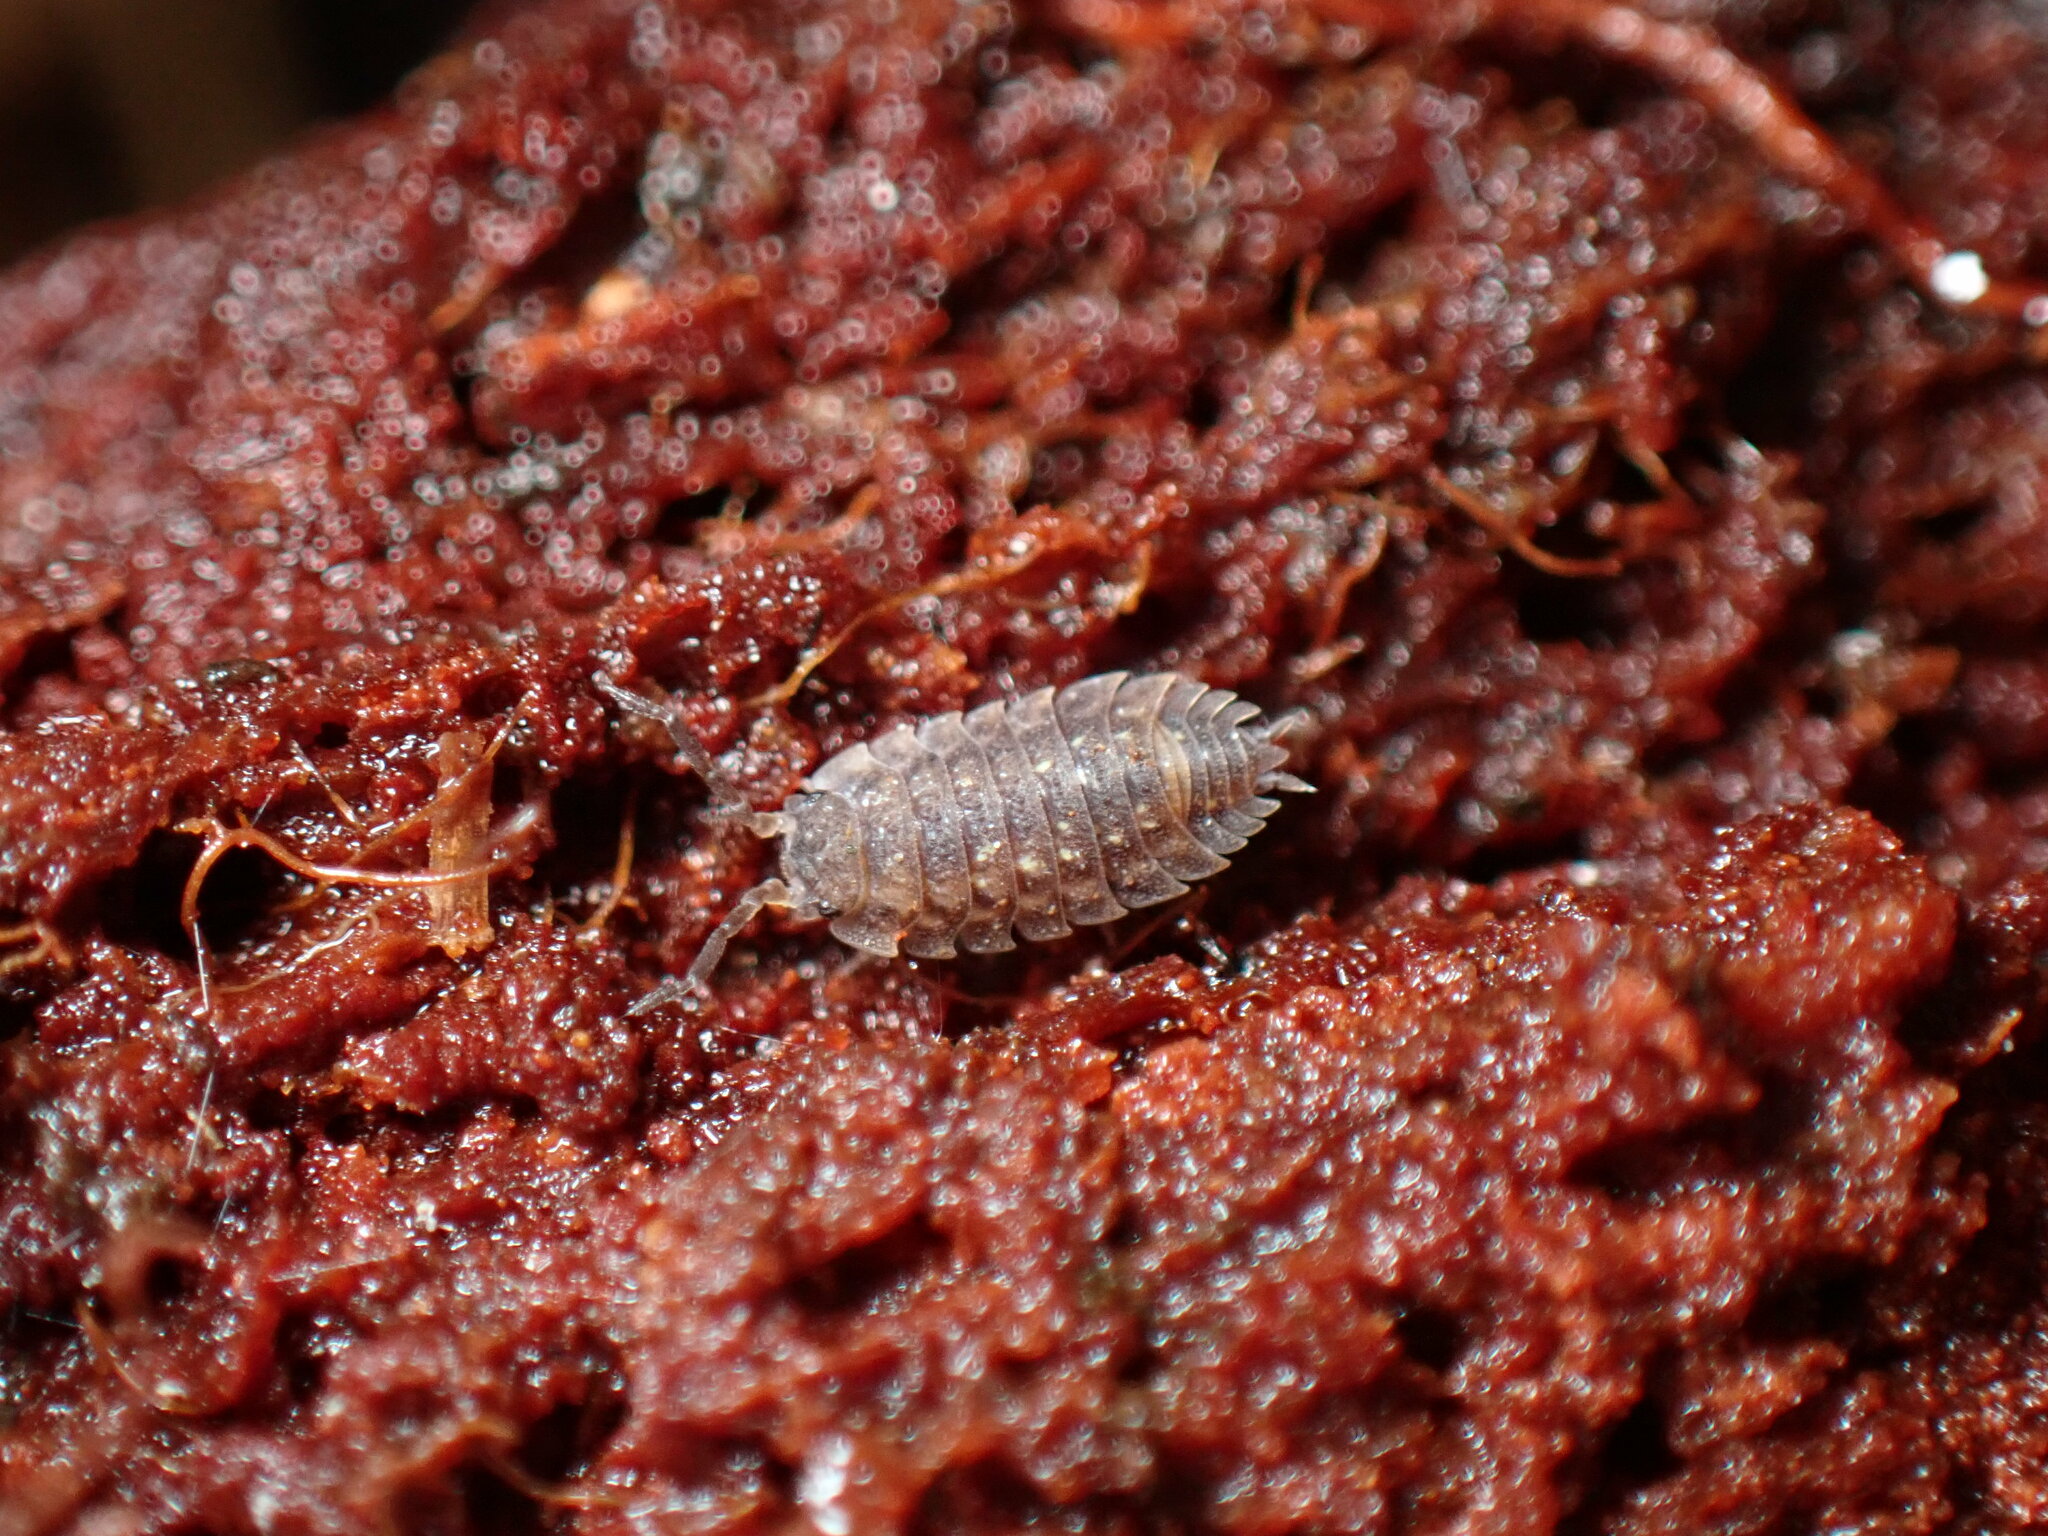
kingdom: Animalia
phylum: Arthropoda
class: Malacostraca
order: Isopoda
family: Oniscidae
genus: Oniscus
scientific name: Oniscus asellus
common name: Common shiny woodlouse
